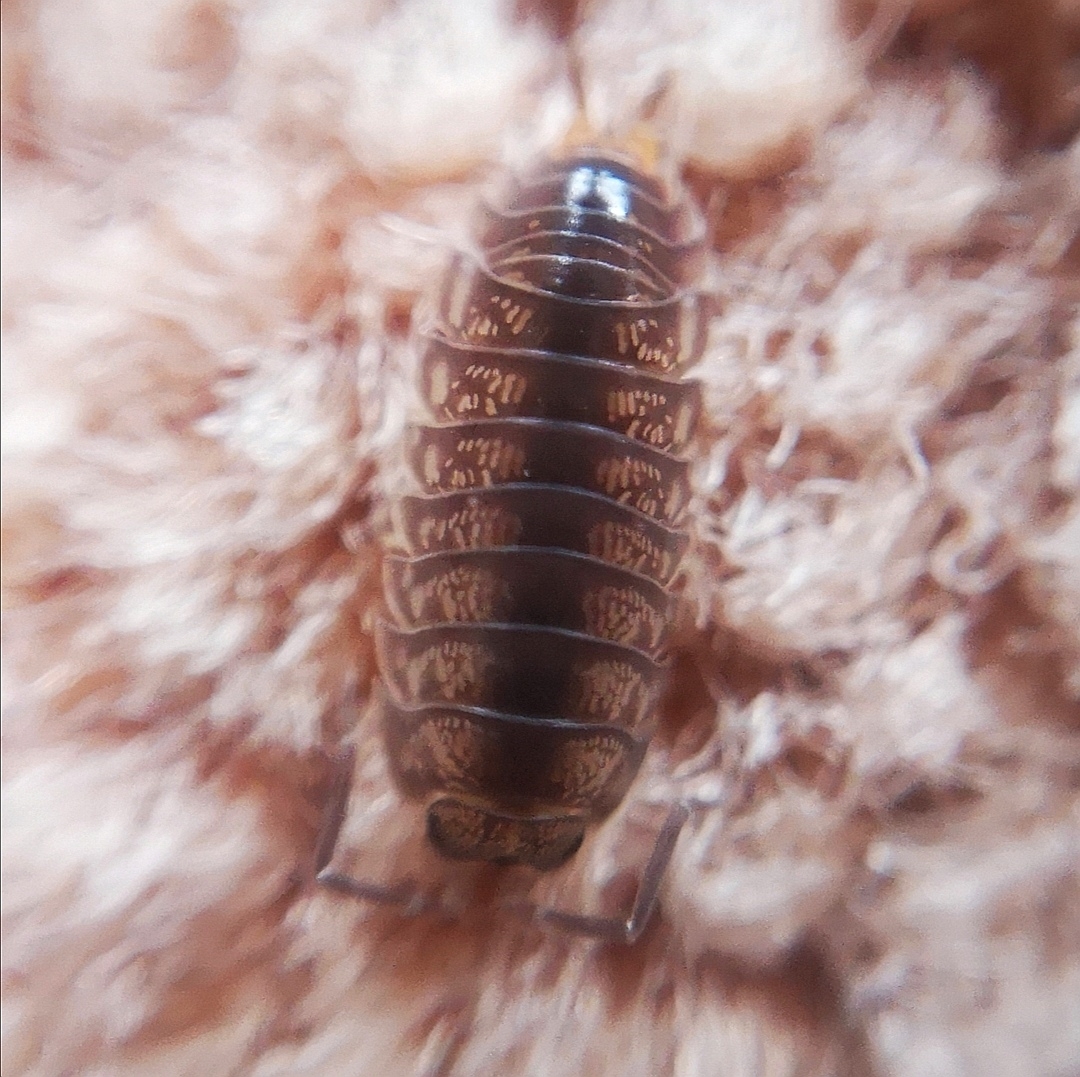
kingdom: Animalia
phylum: Arthropoda
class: Malacostraca
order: Isopoda
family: Cylisticidae
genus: Cylisticus
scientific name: Cylisticus convexus
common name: Curly woodlouse
